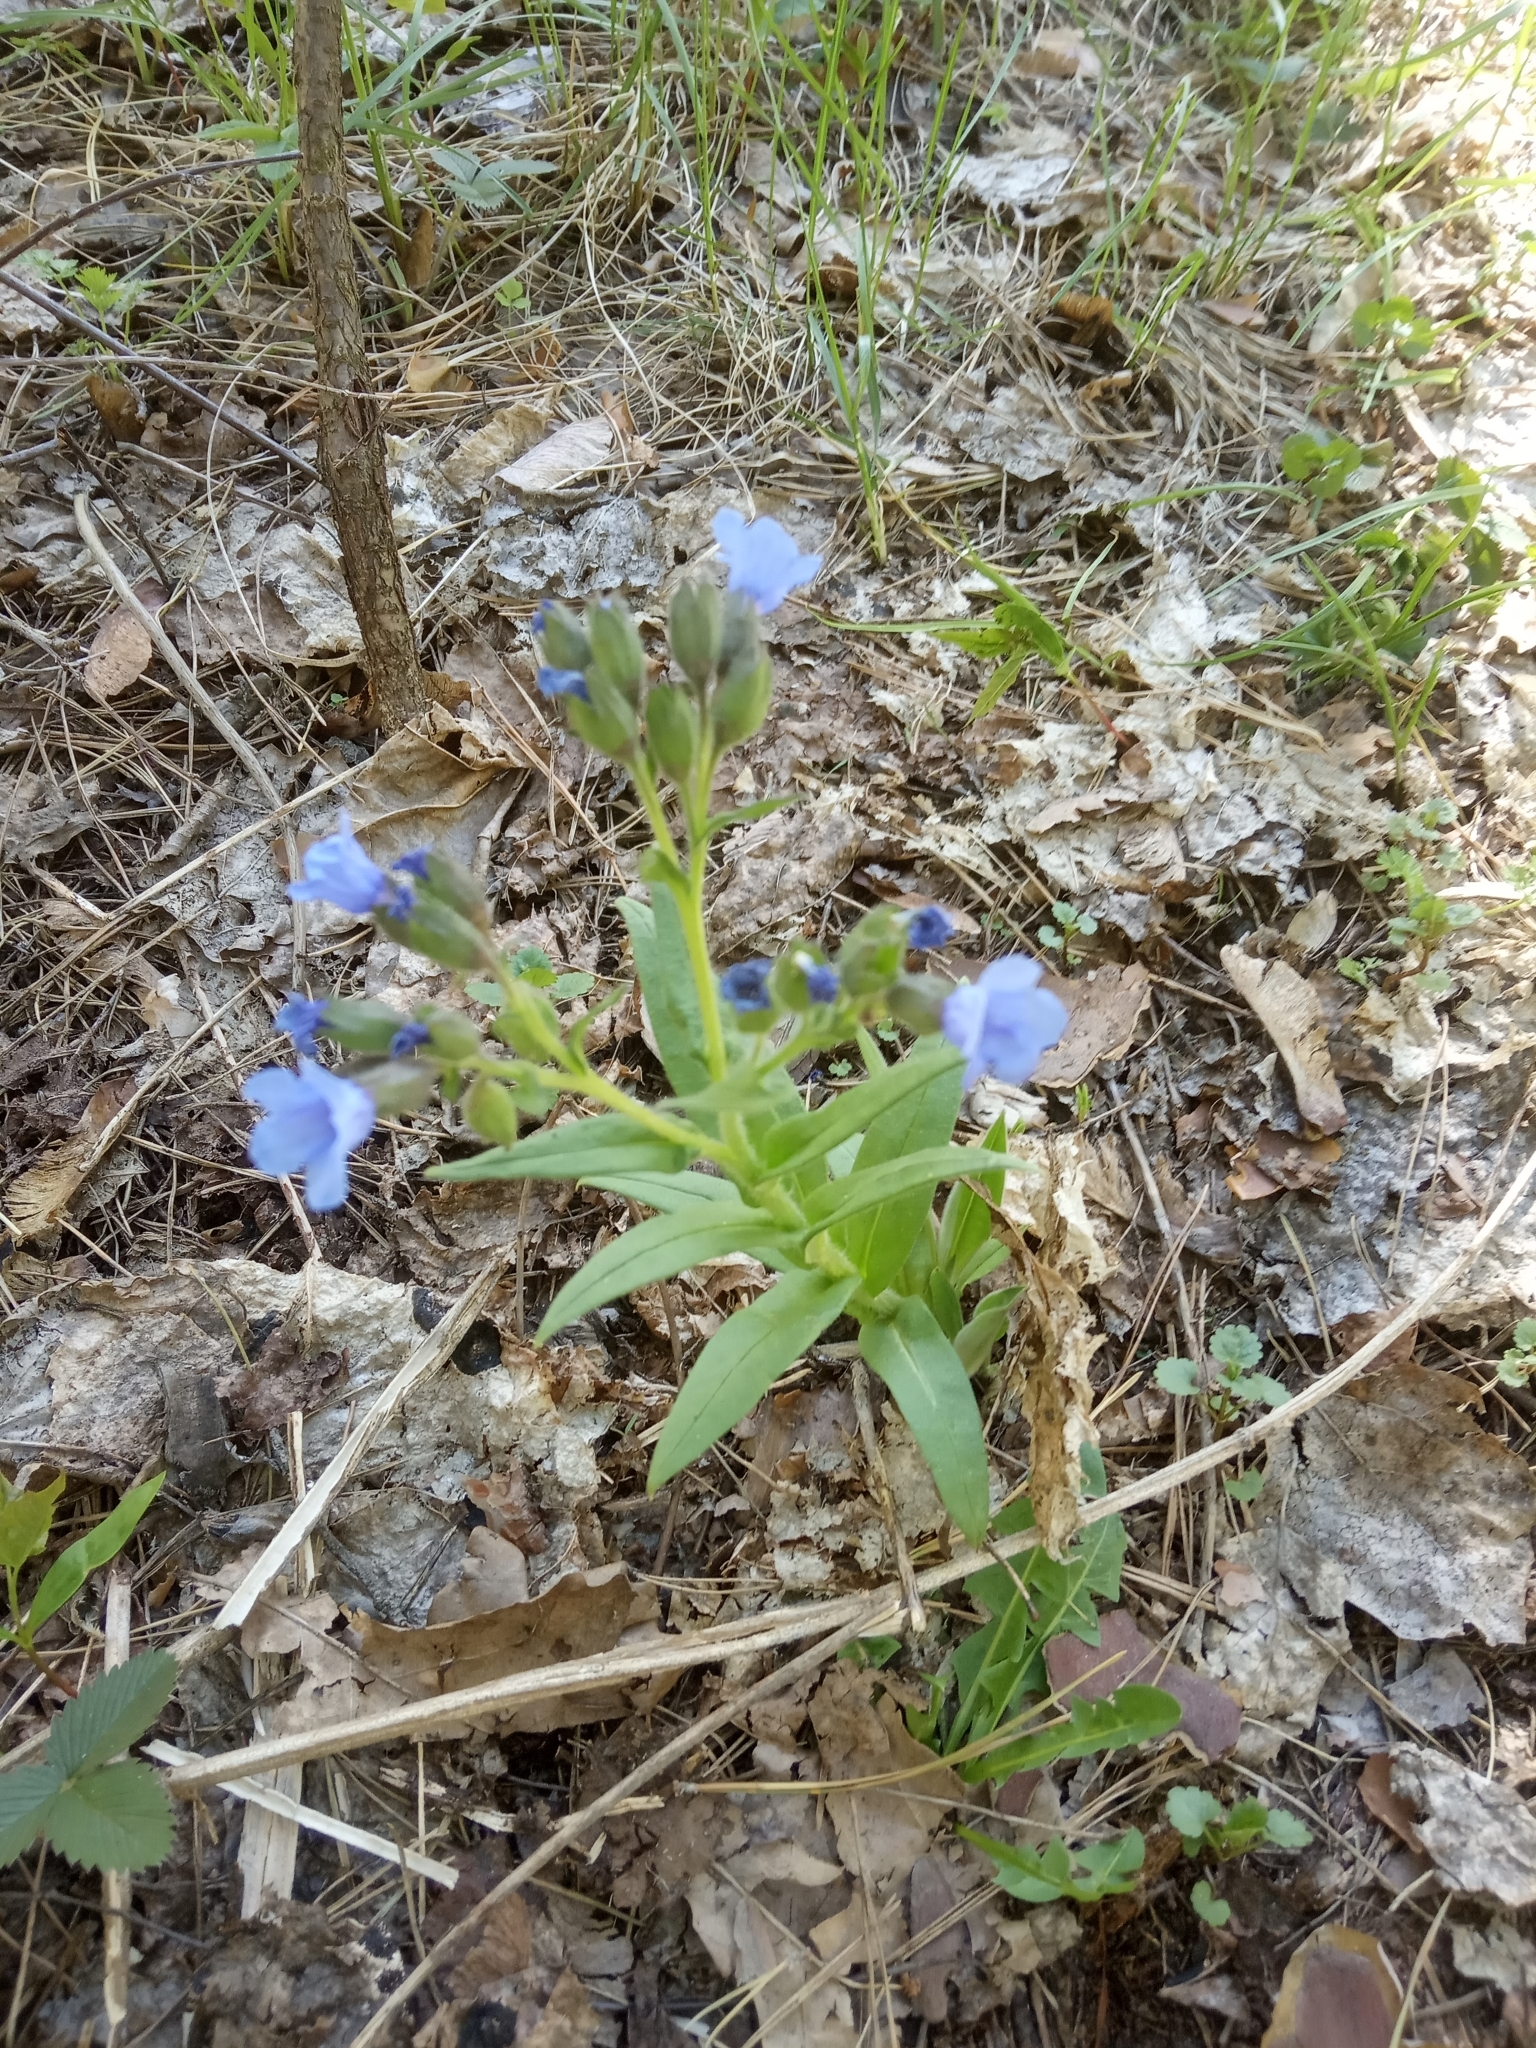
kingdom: Plantae
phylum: Tracheophyta
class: Magnoliopsida
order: Boraginales
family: Boraginaceae
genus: Pulmonaria
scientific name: Pulmonaria angustifolia
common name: Blue cowslip
